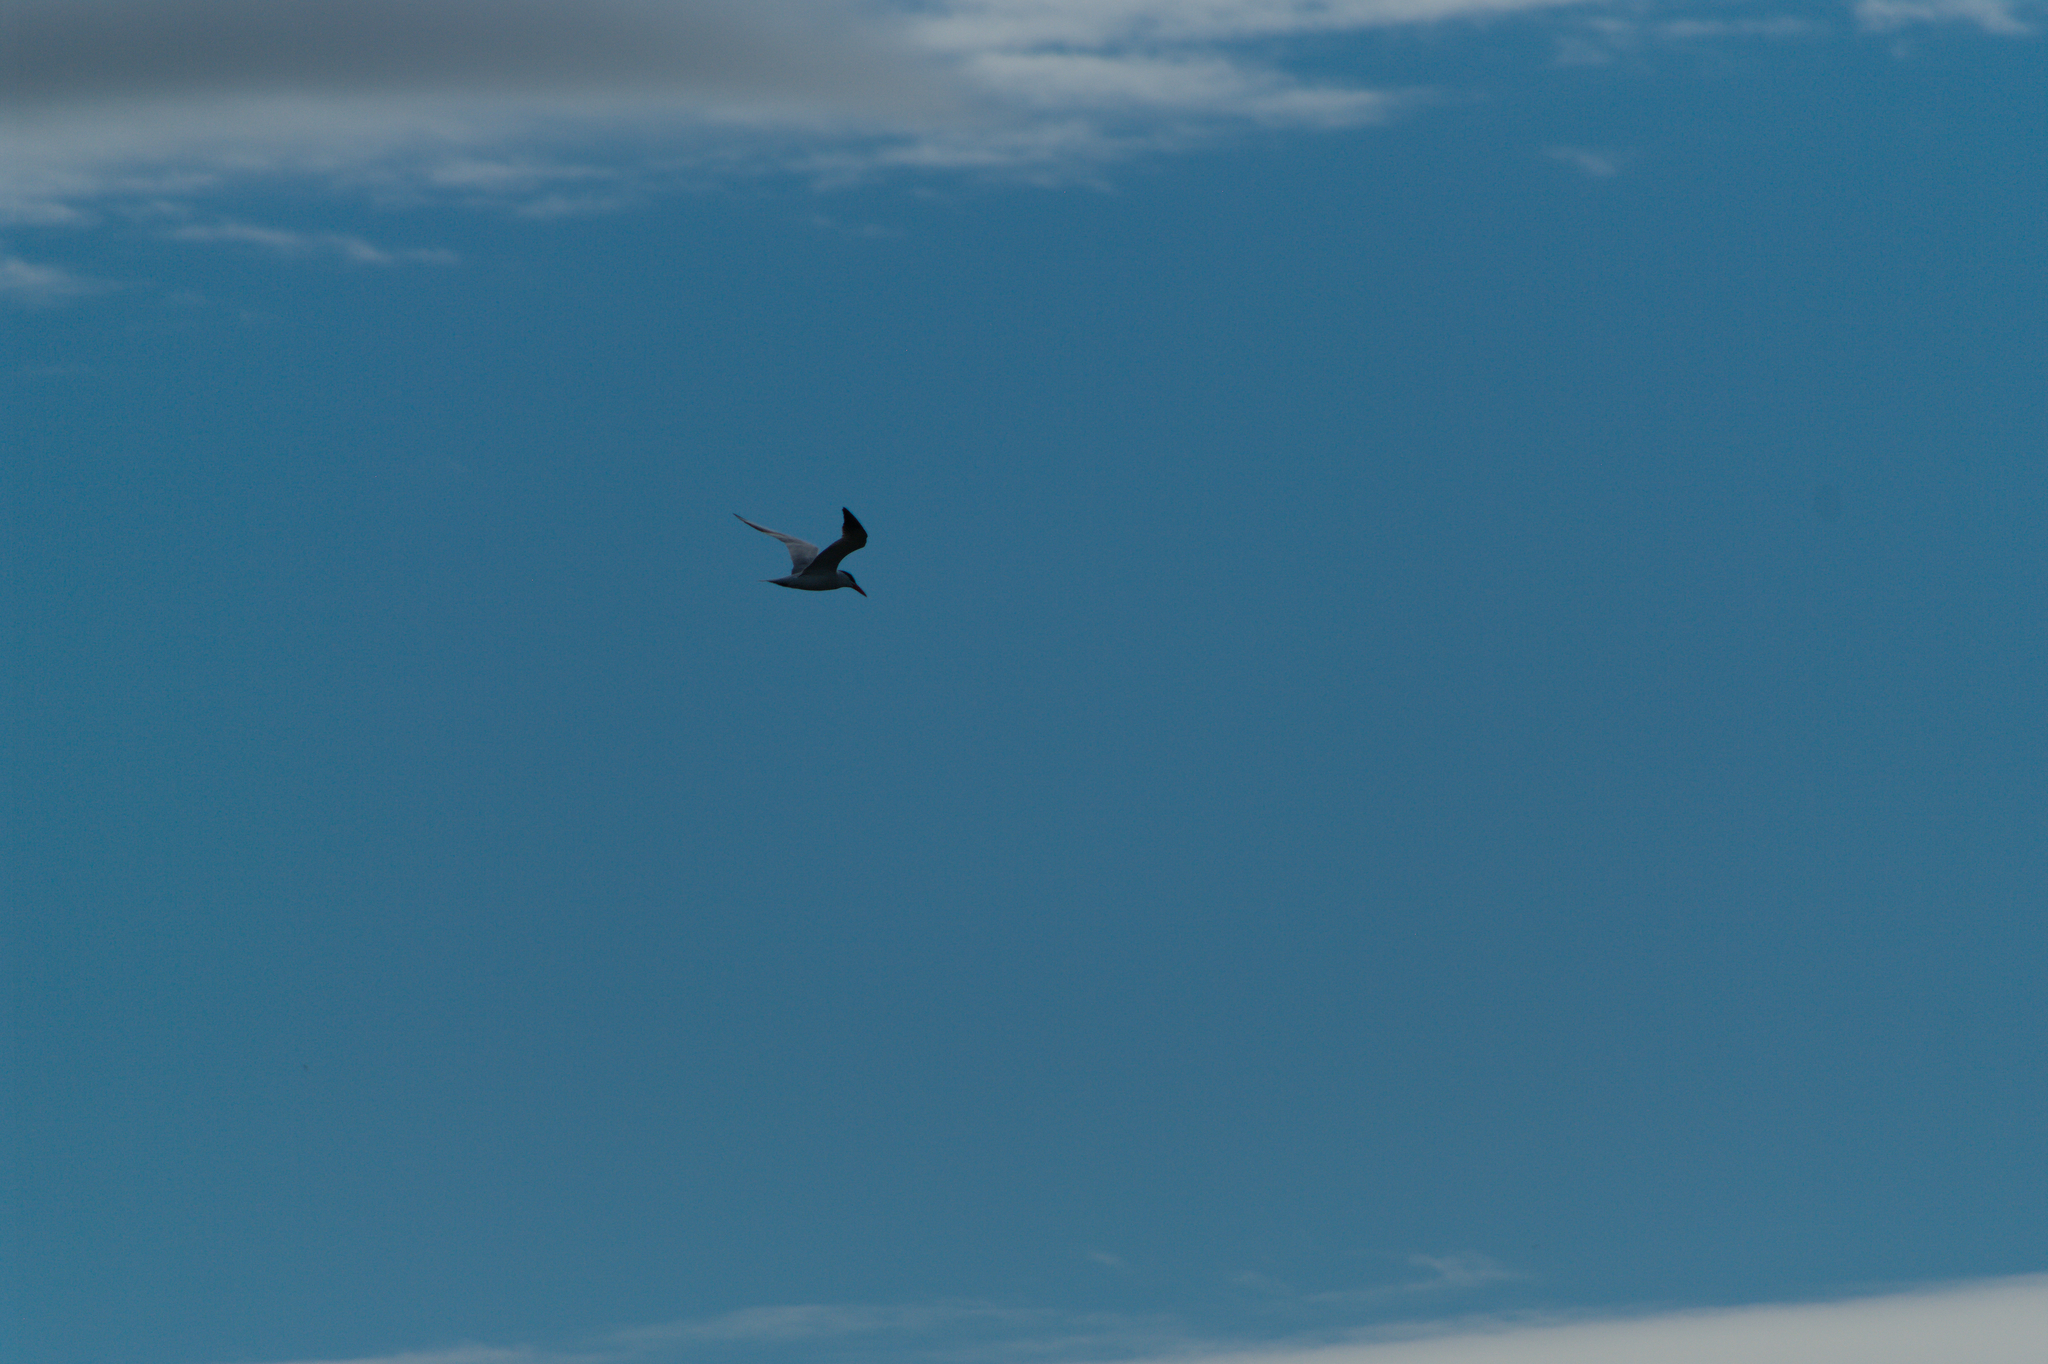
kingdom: Animalia
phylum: Chordata
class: Aves
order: Charadriiformes
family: Laridae
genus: Hydroprogne
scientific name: Hydroprogne caspia
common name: Caspian tern
